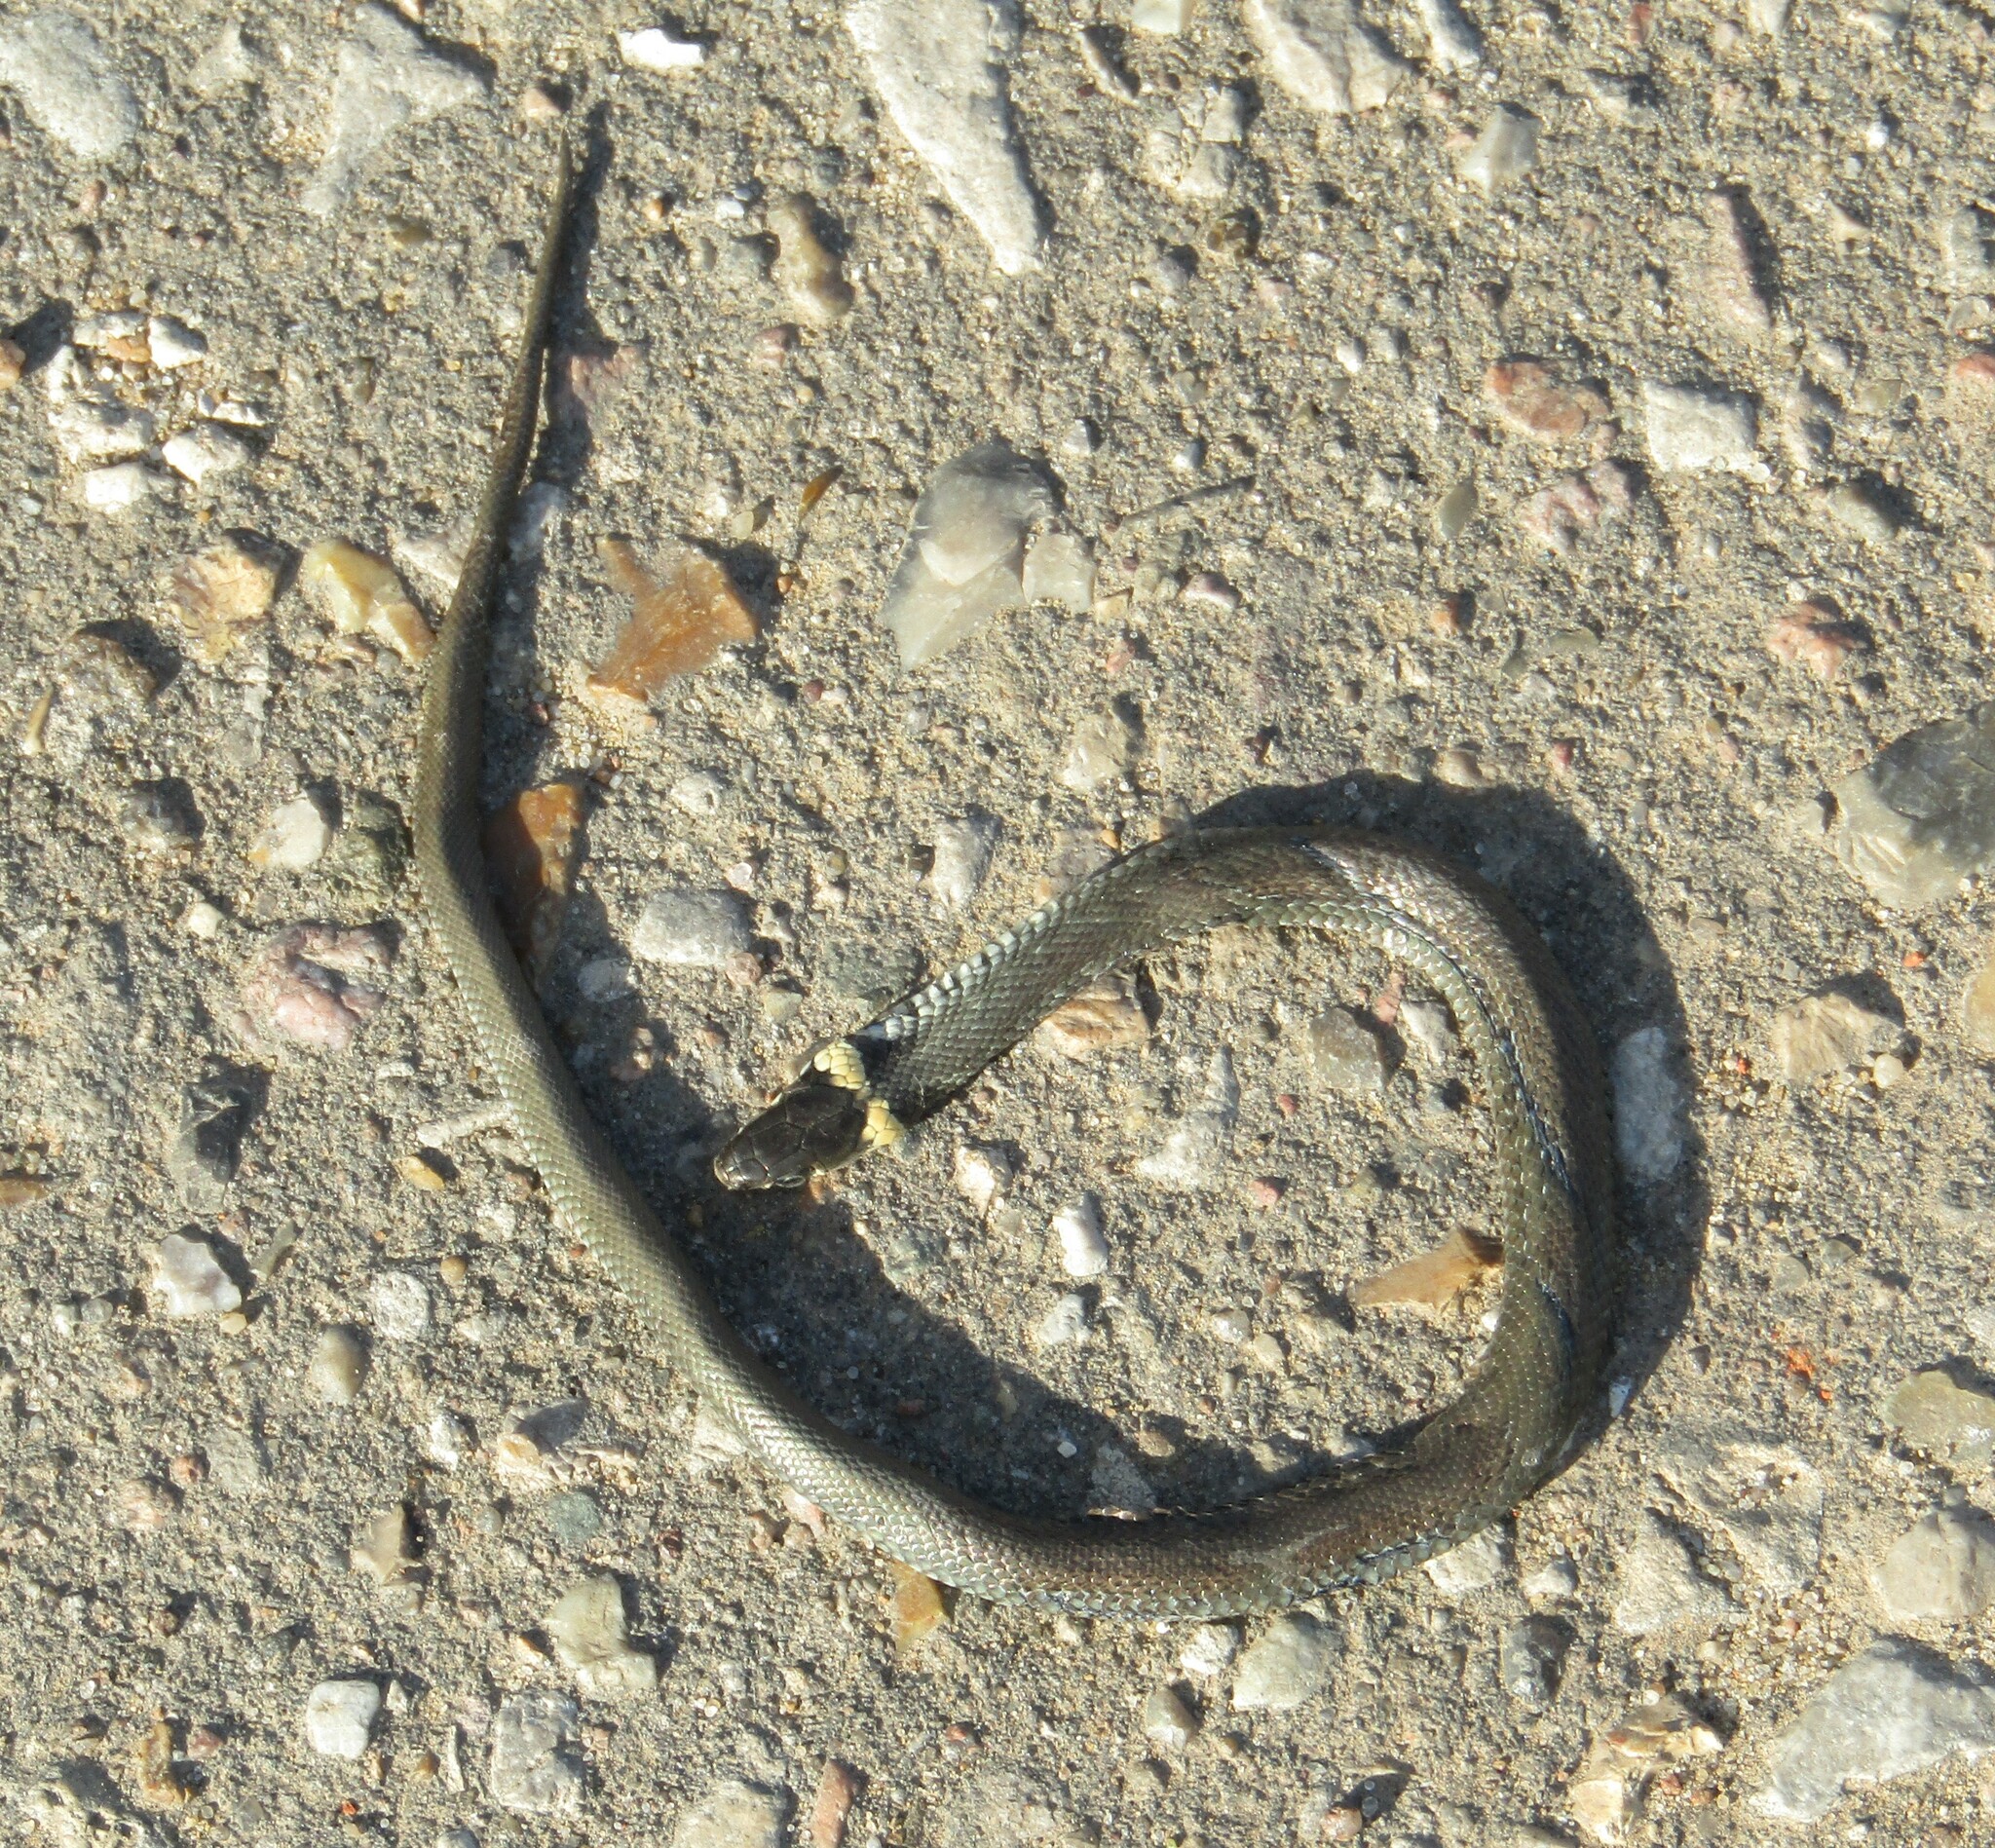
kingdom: Animalia
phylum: Chordata
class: Squamata
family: Colubridae
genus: Natrix
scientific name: Natrix natrix
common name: Grass snake
